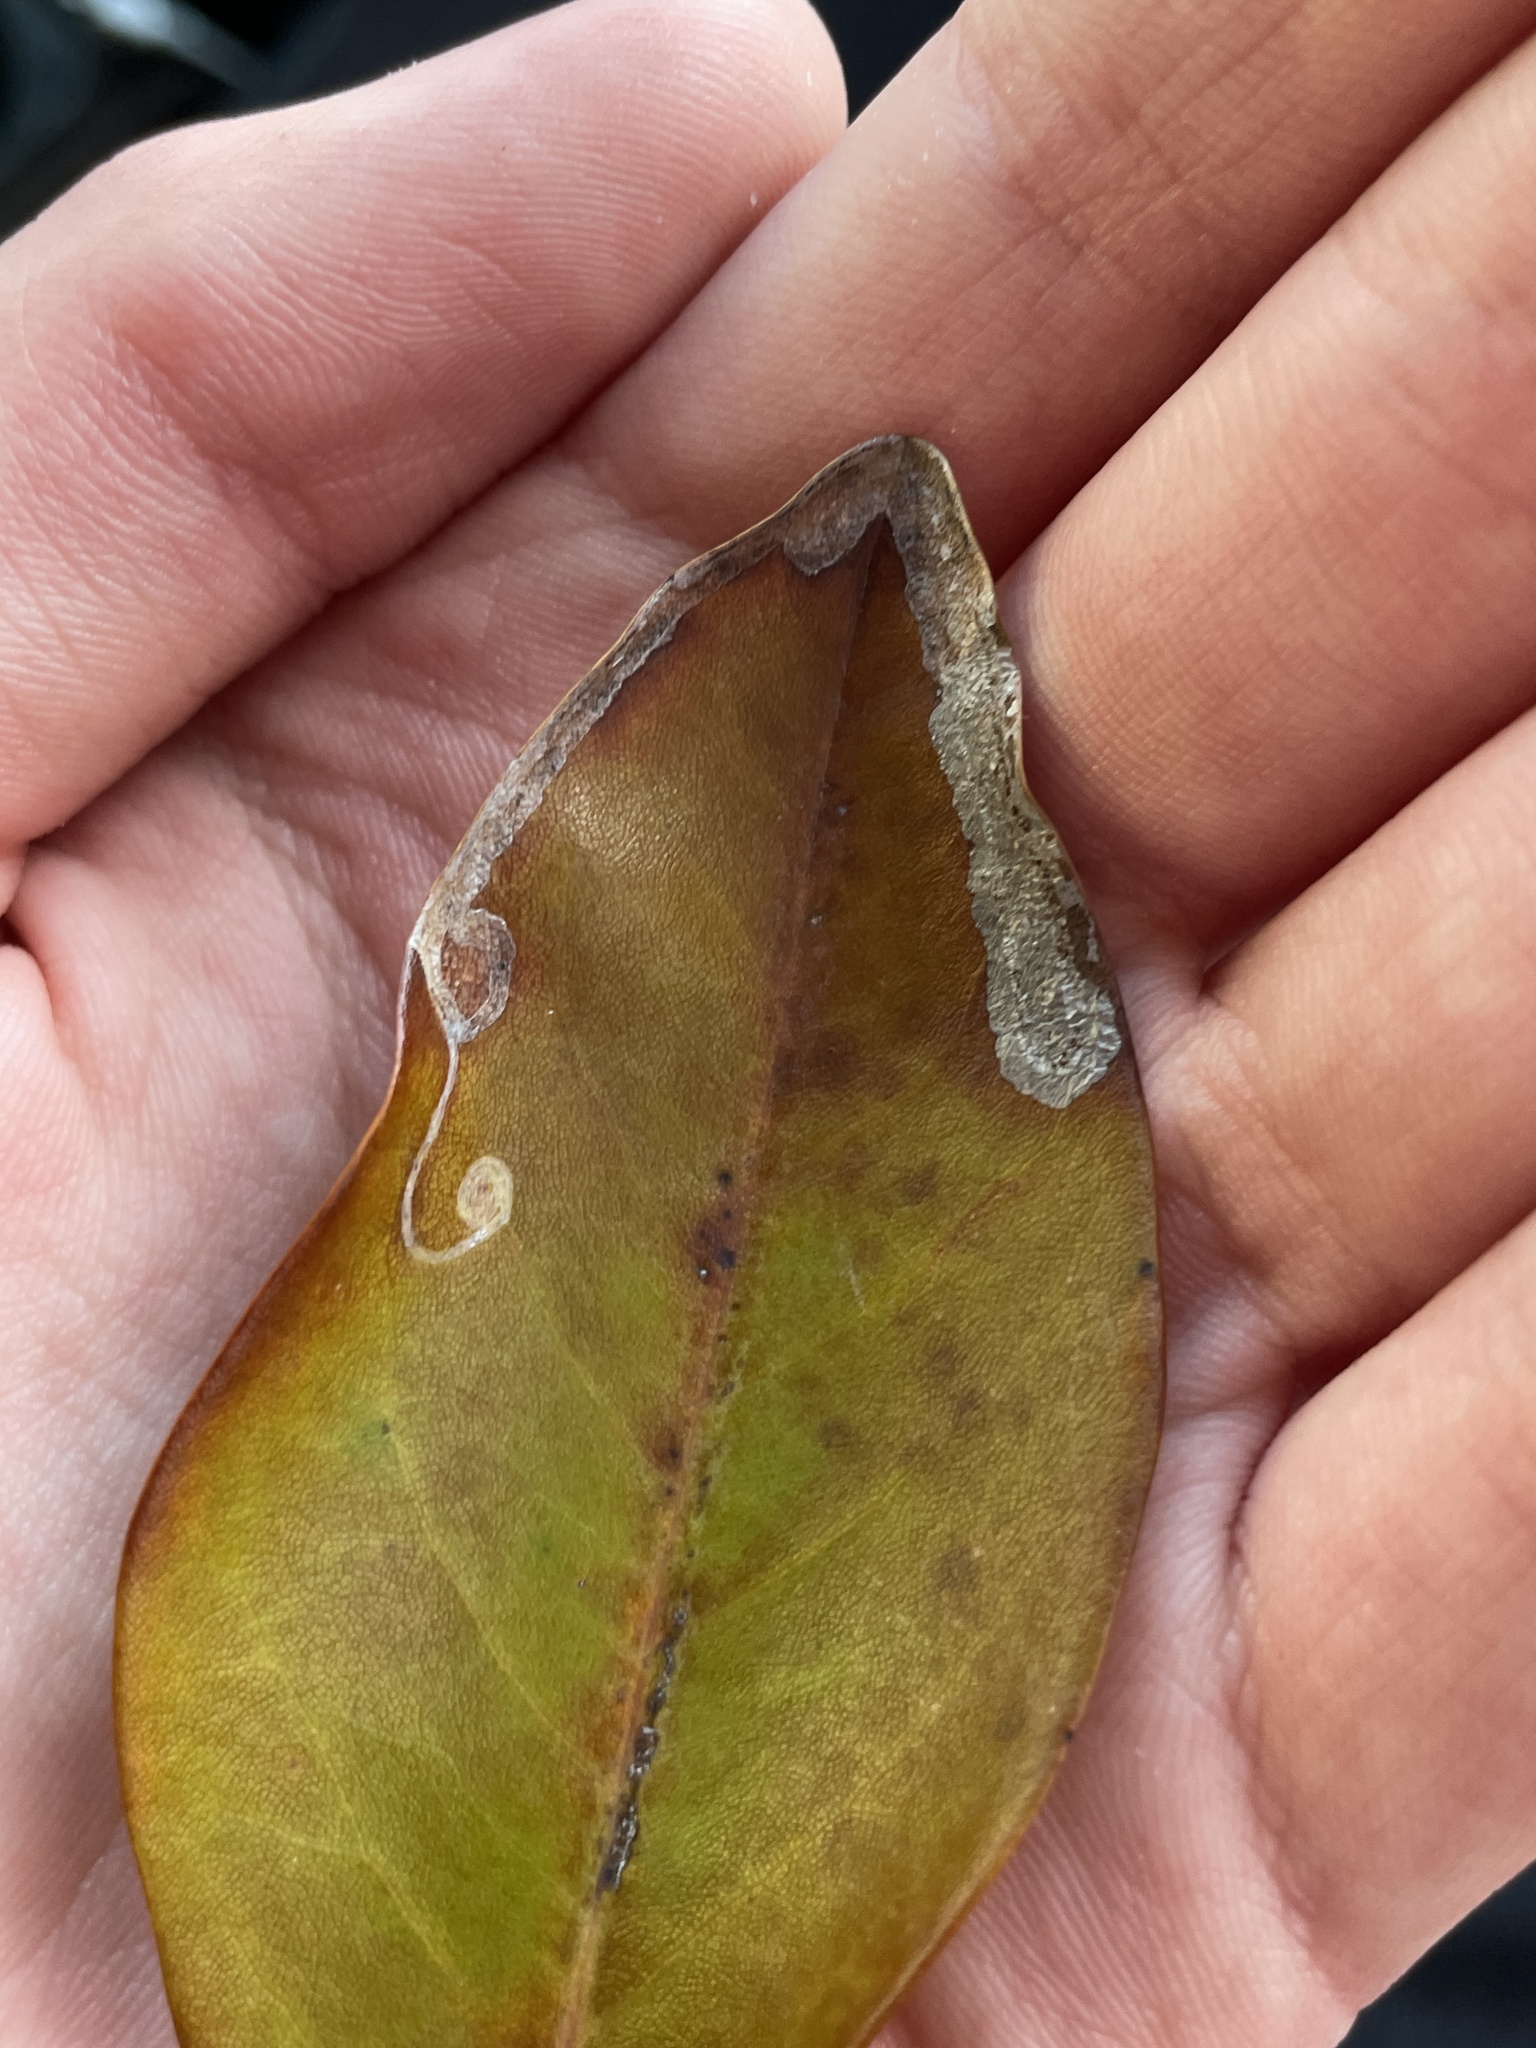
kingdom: Animalia
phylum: Arthropoda
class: Insecta
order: Lepidoptera
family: Gracillariidae
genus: Phyllocnistis
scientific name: Phyllocnistis liriodendronella
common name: Tulip tree leaf miner
